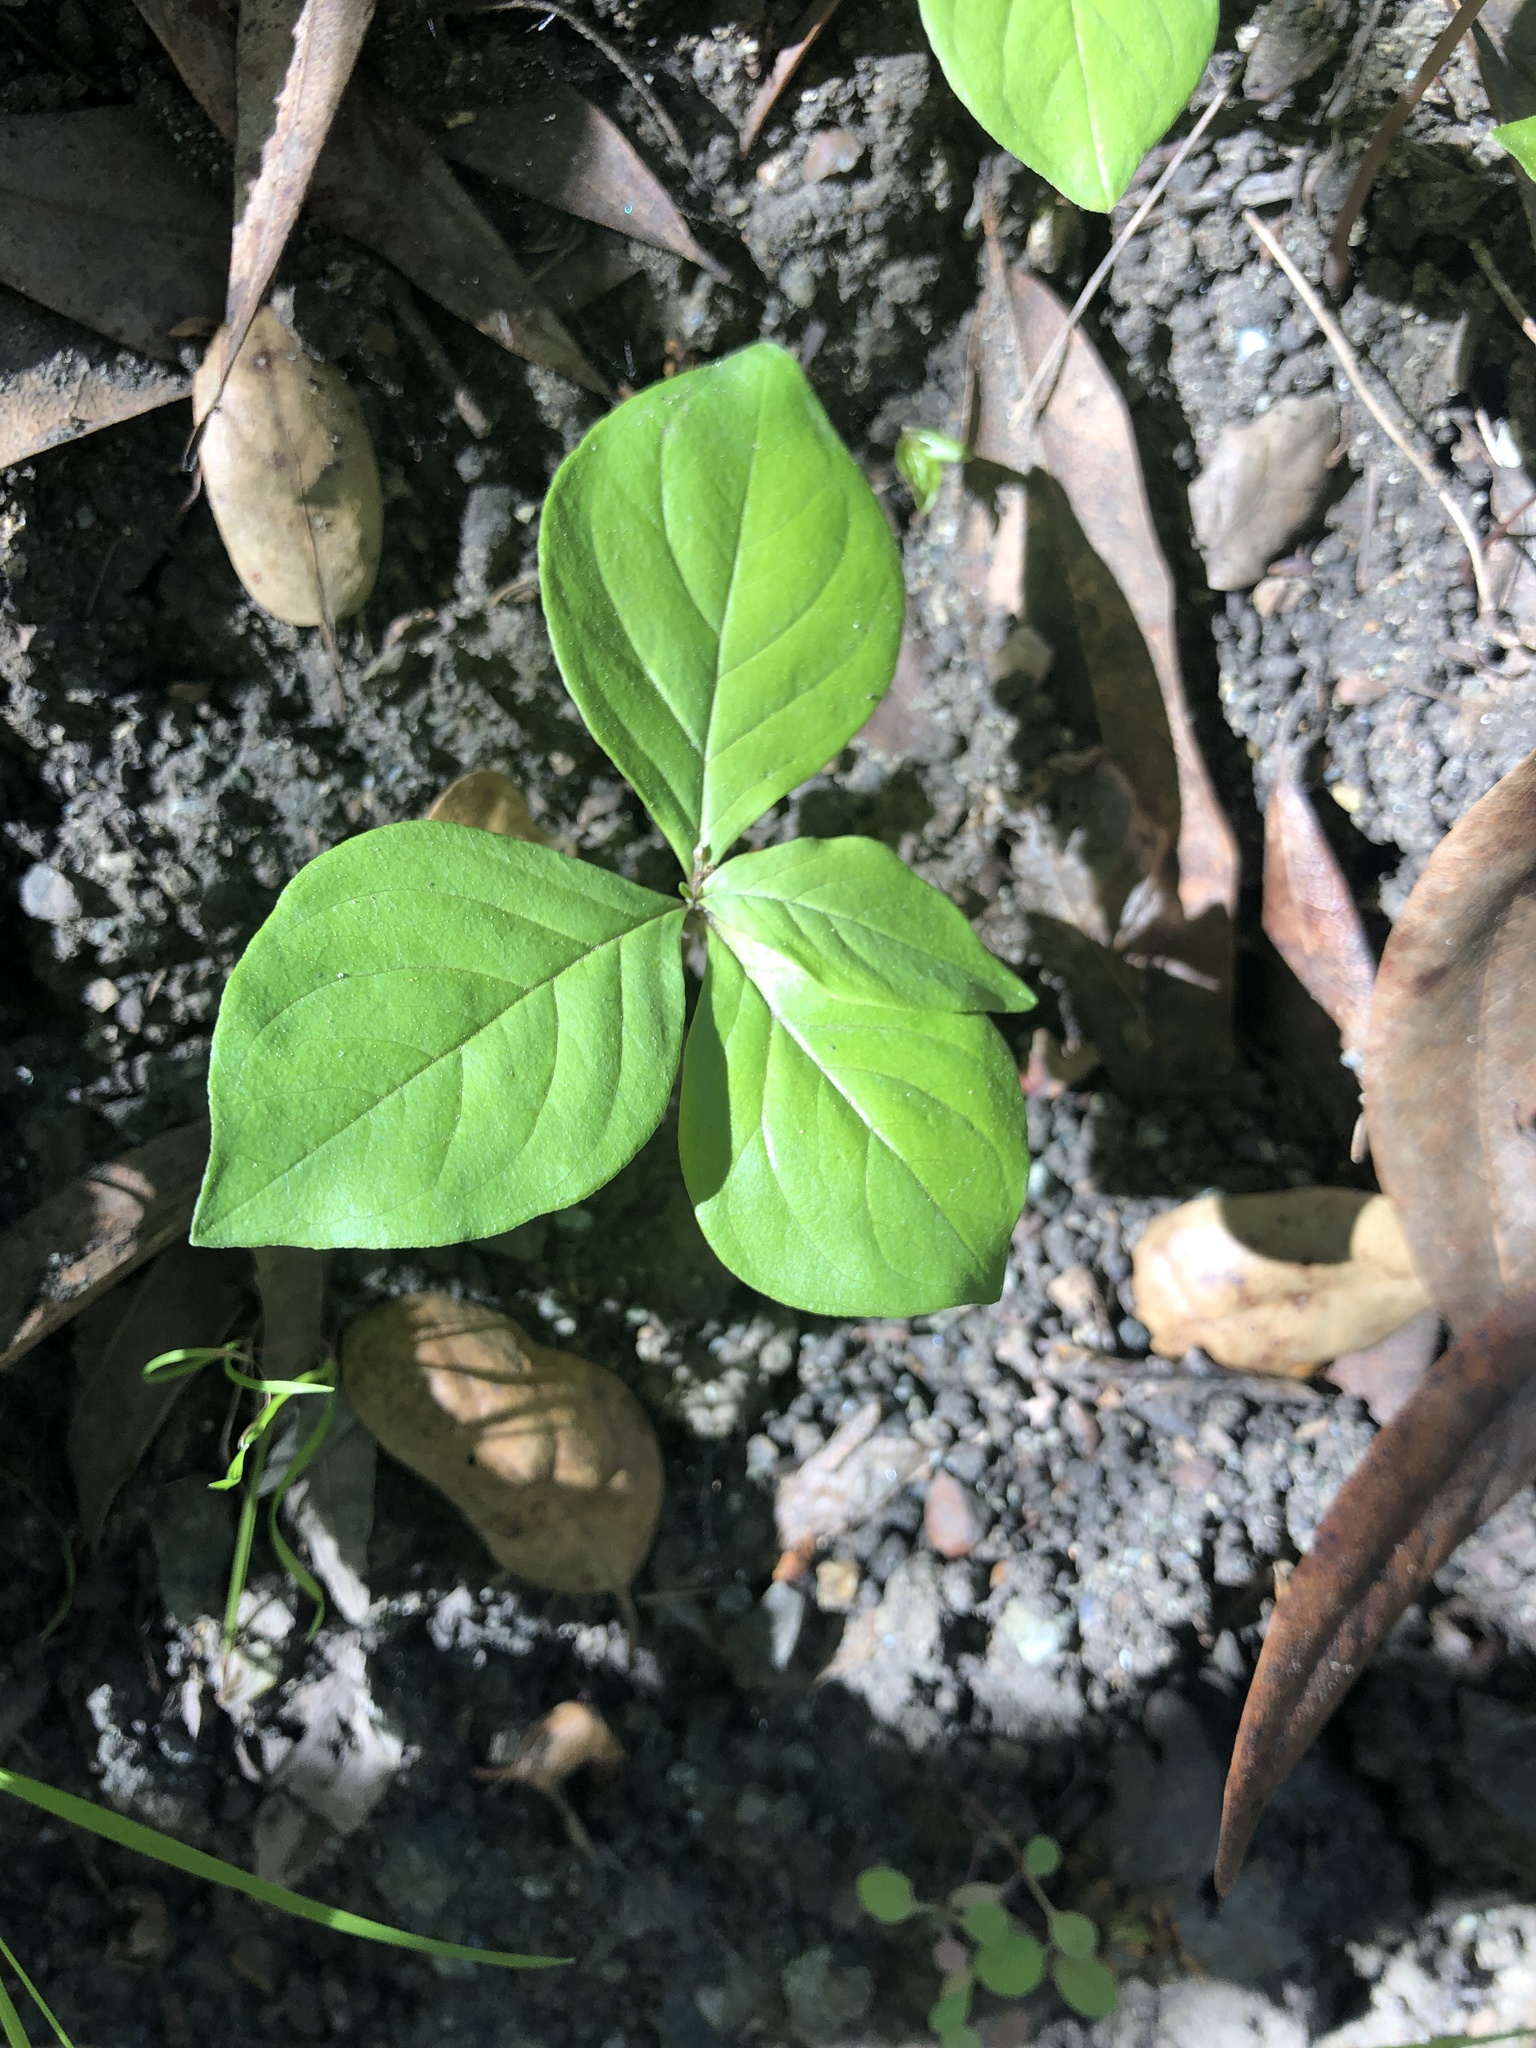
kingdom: Plantae
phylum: Tracheophyta
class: Magnoliopsida
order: Ericales
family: Primulaceae
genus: Lysimachia
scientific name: Lysimachia latifolia
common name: Pacific starflower
